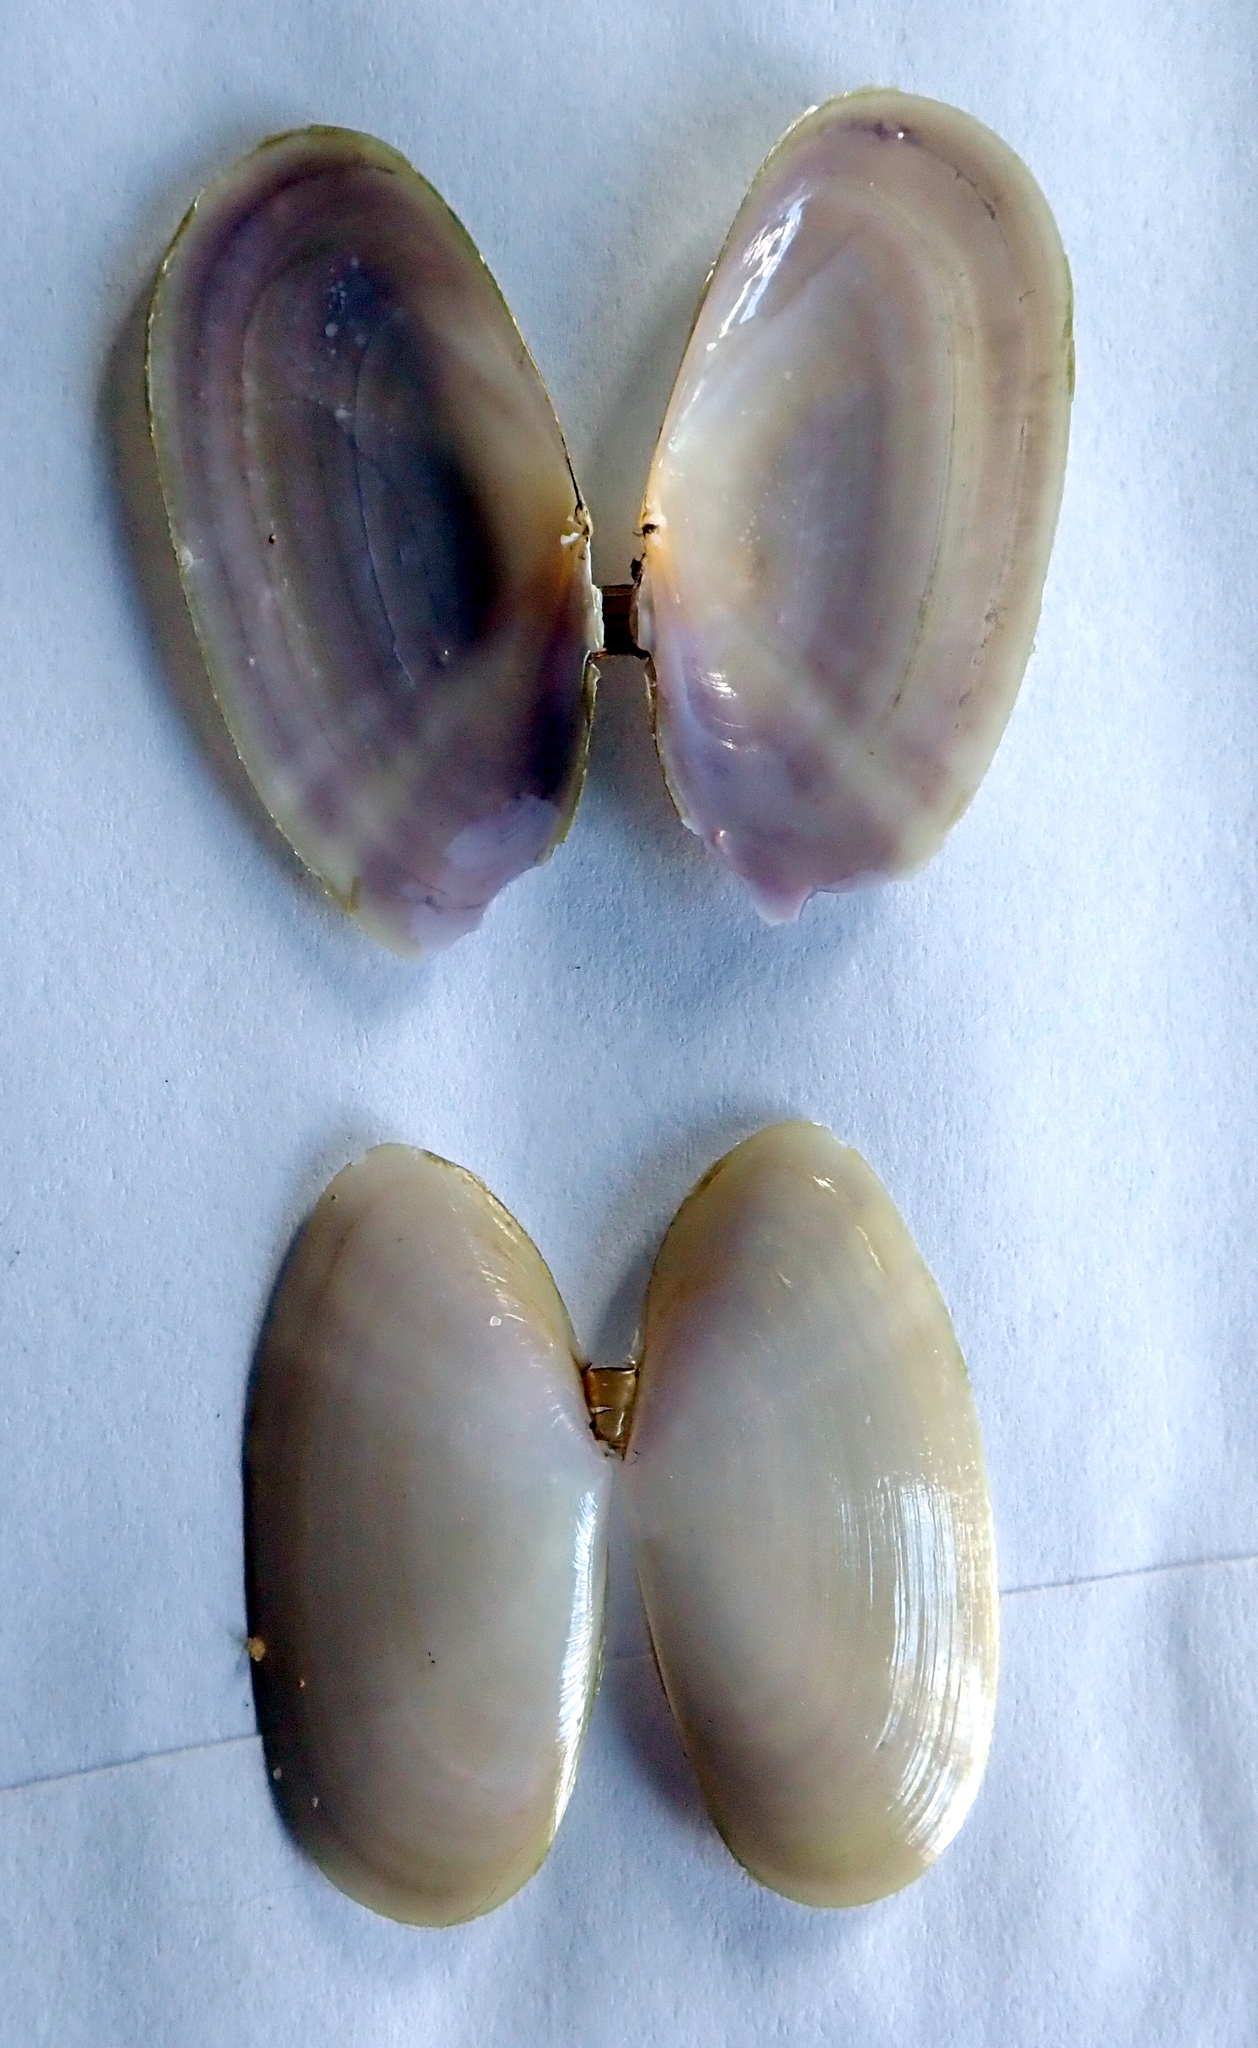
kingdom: Animalia
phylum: Mollusca
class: Bivalvia
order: Cardiida
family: Psammobiidae
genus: Hiatula
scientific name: Hiatula siliquens
